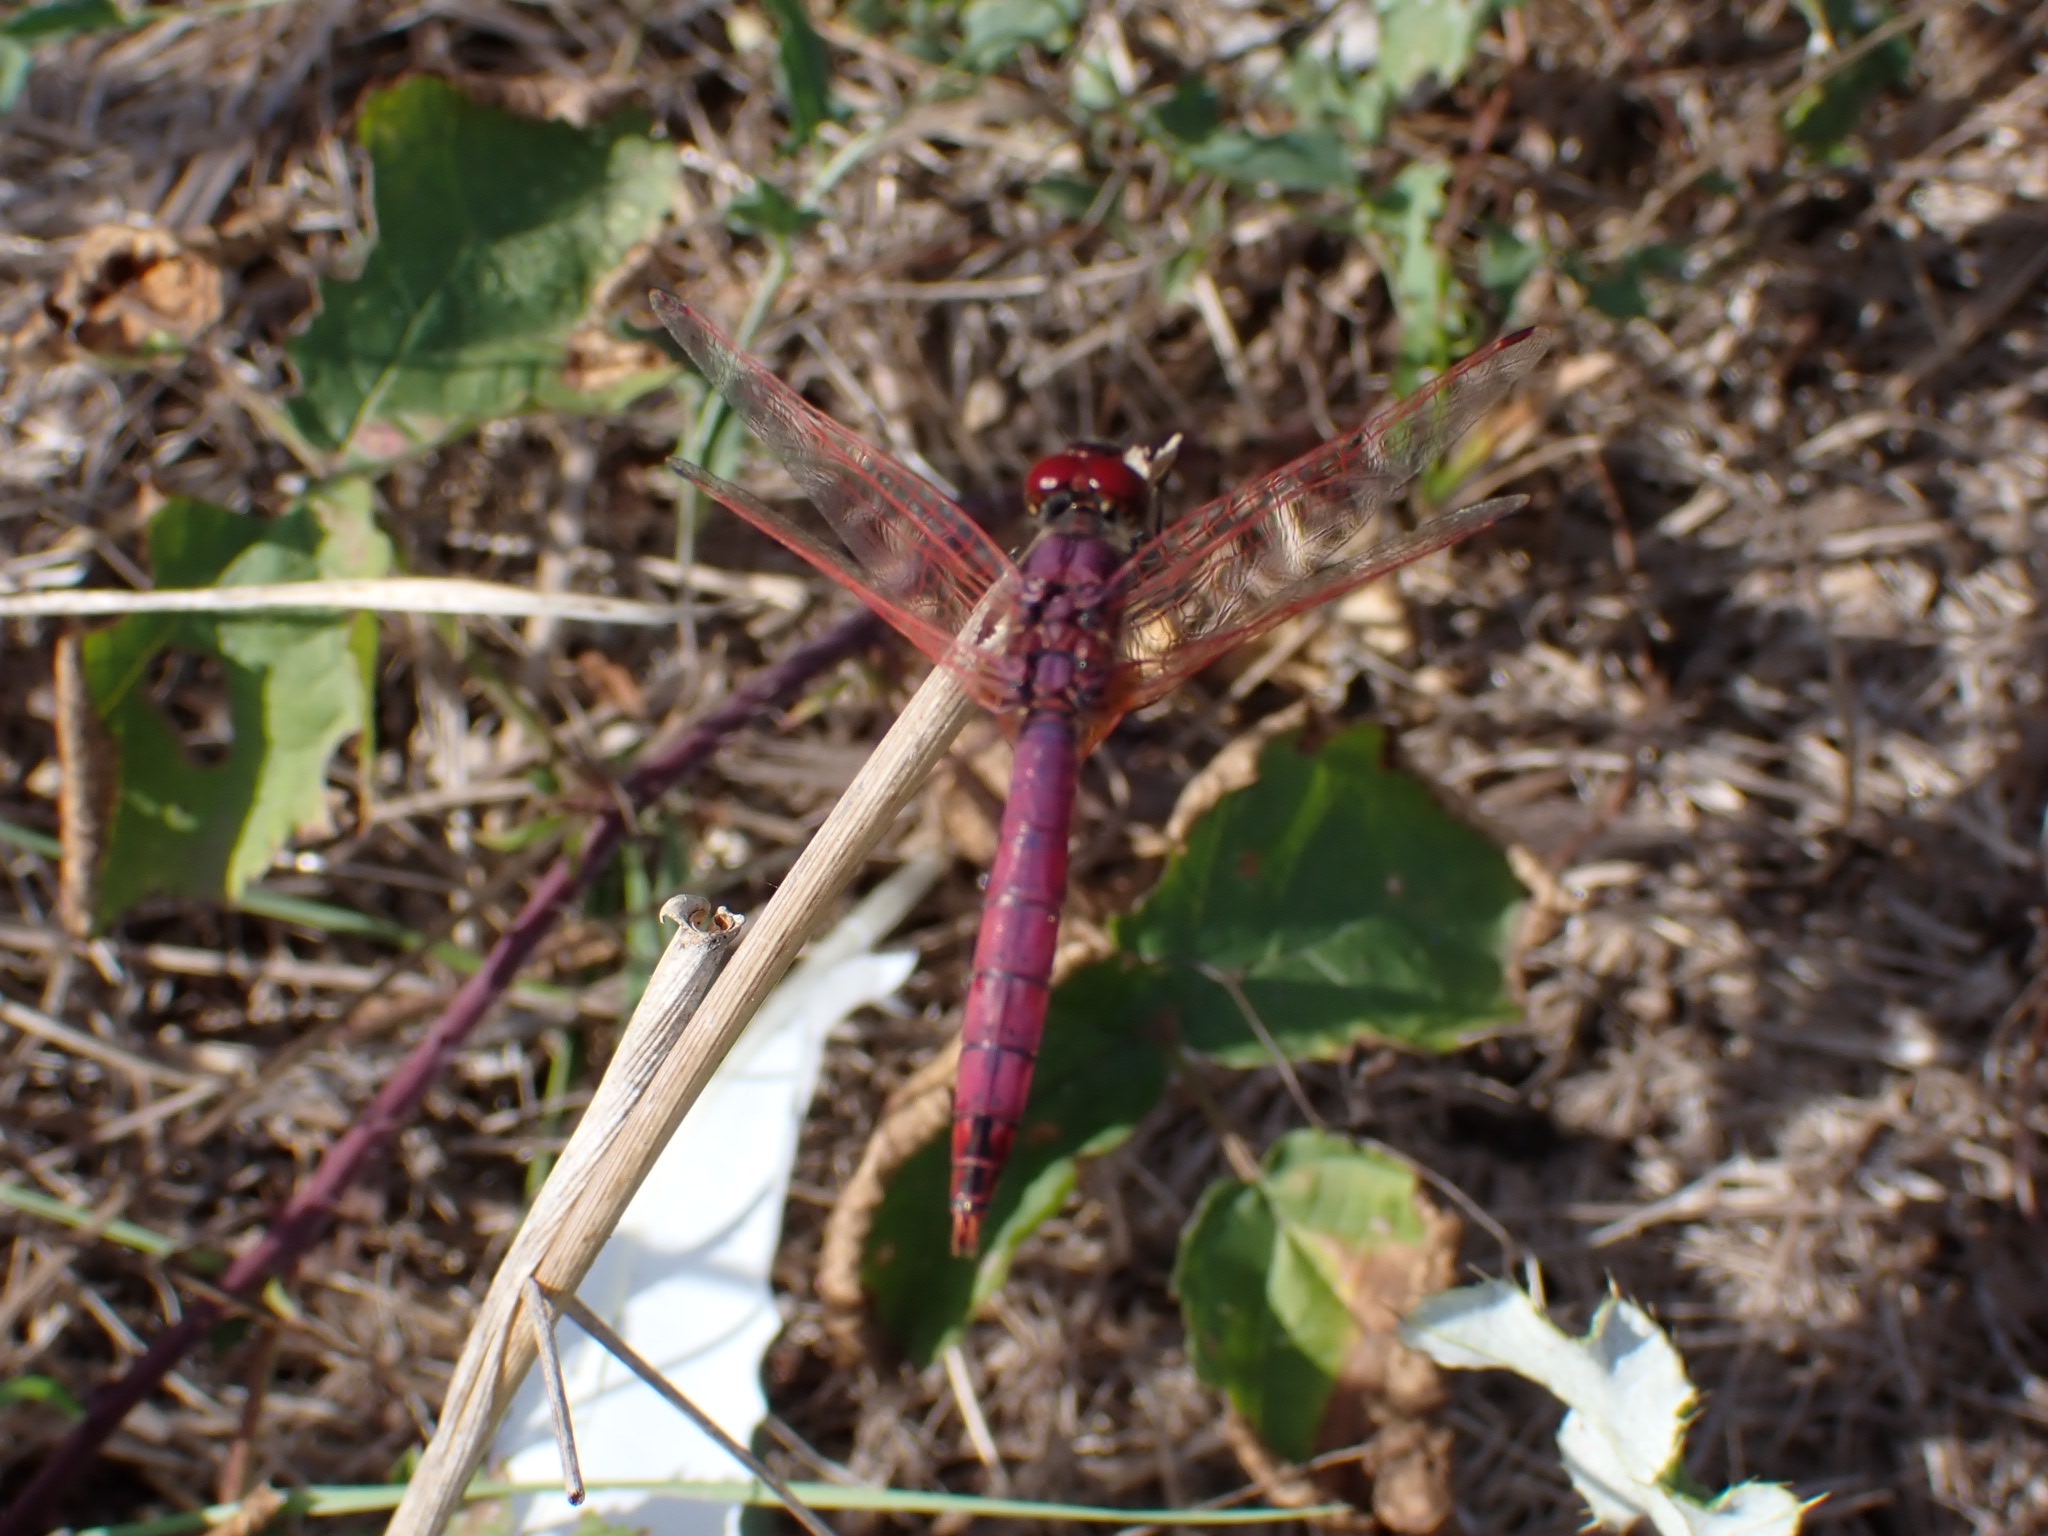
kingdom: Animalia
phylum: Arthropoda
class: Insecta
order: Odonata
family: Libellulidae
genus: Trithemis
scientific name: Trithemis annulata
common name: Violet dropwing
